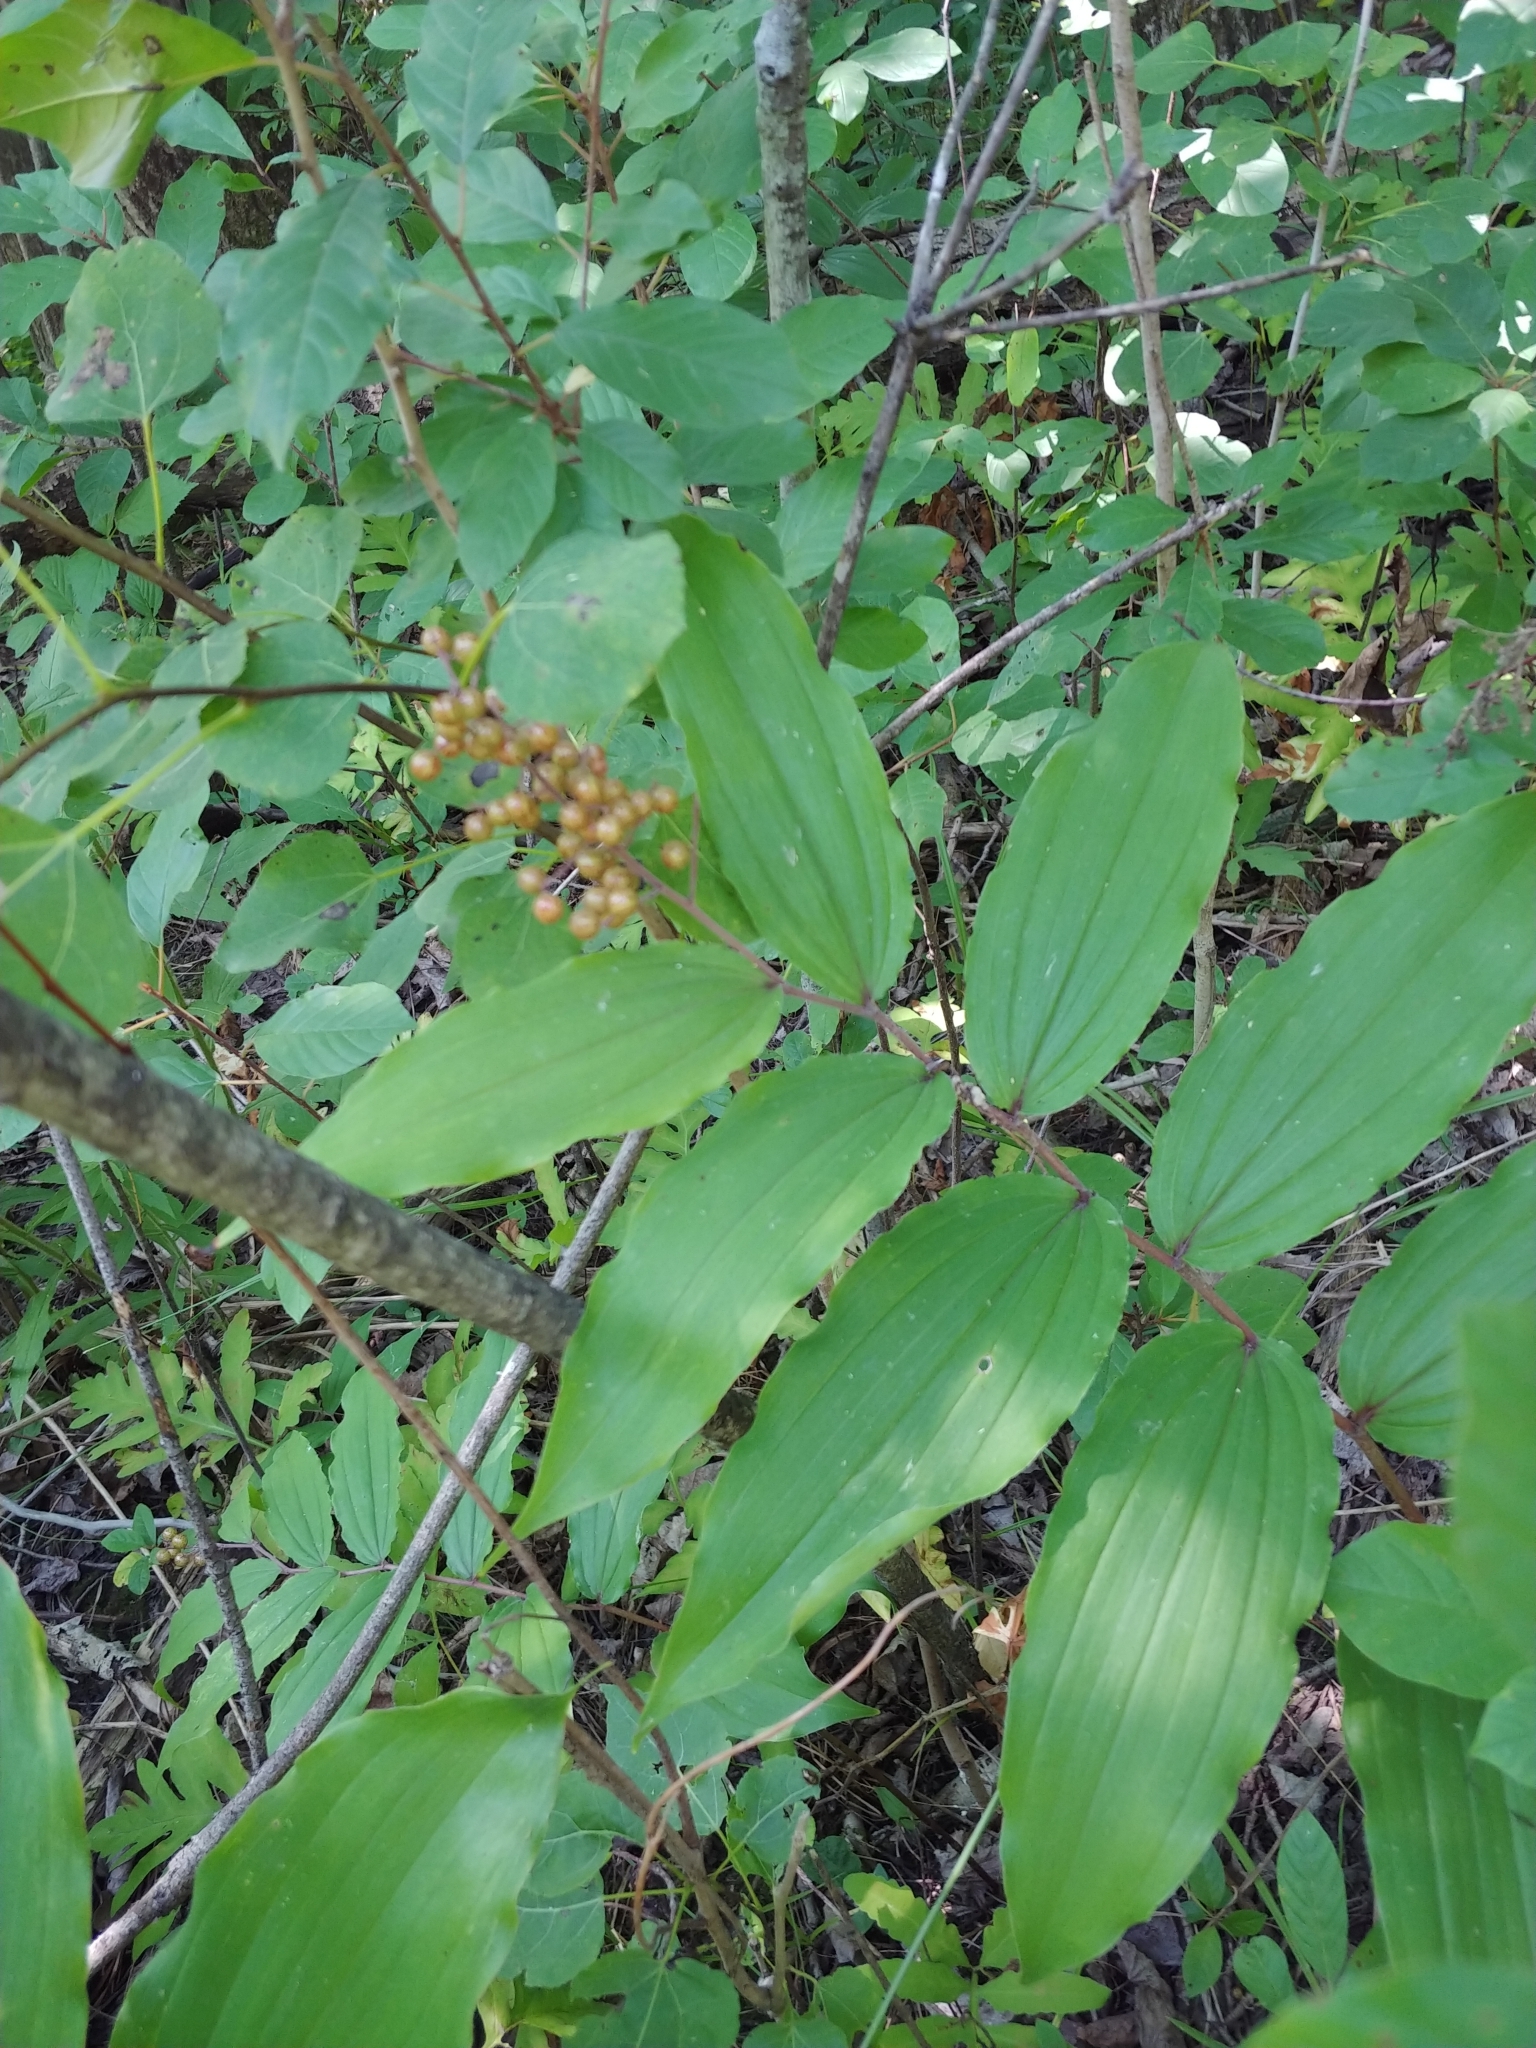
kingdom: Plantae
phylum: Tracheophyta
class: Liliopsida
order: Asparagales
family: Asparagaceae
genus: Maianthemum
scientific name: Maianthemum racemosum
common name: False spikenard
